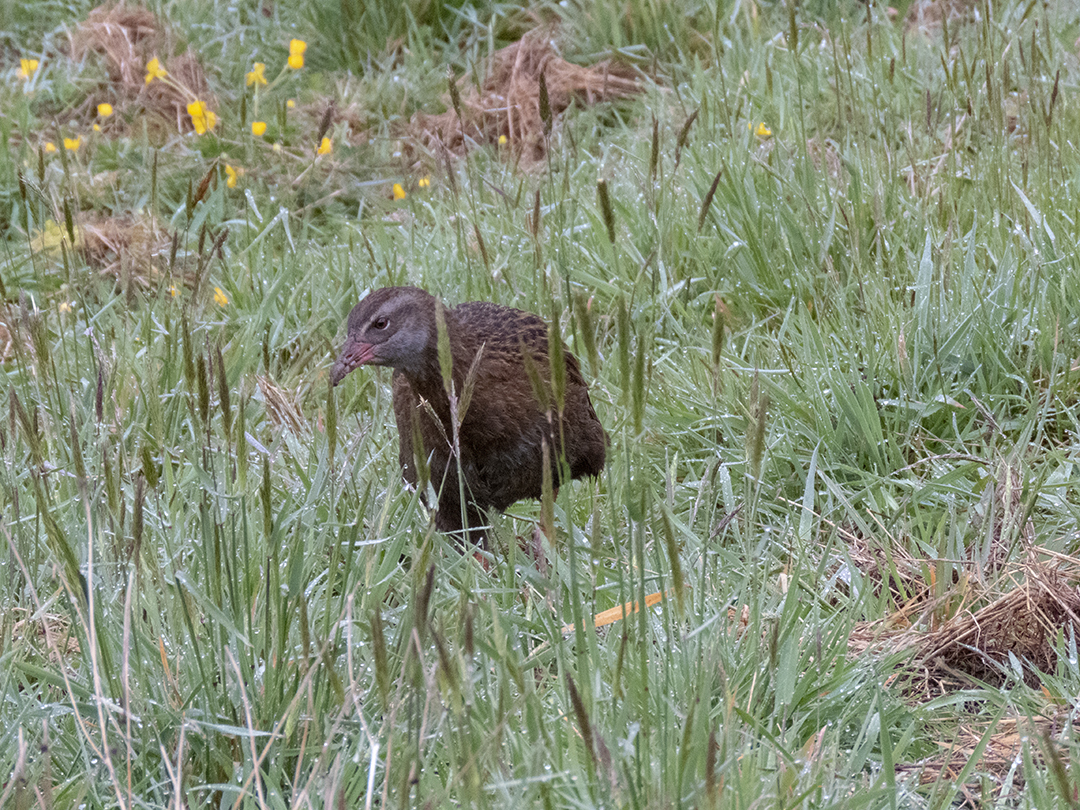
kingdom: Animalia
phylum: Chordata
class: Aves
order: Gruiformes
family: Rallidae
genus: Gallirallus
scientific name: Gallirallus australis
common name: Weka
